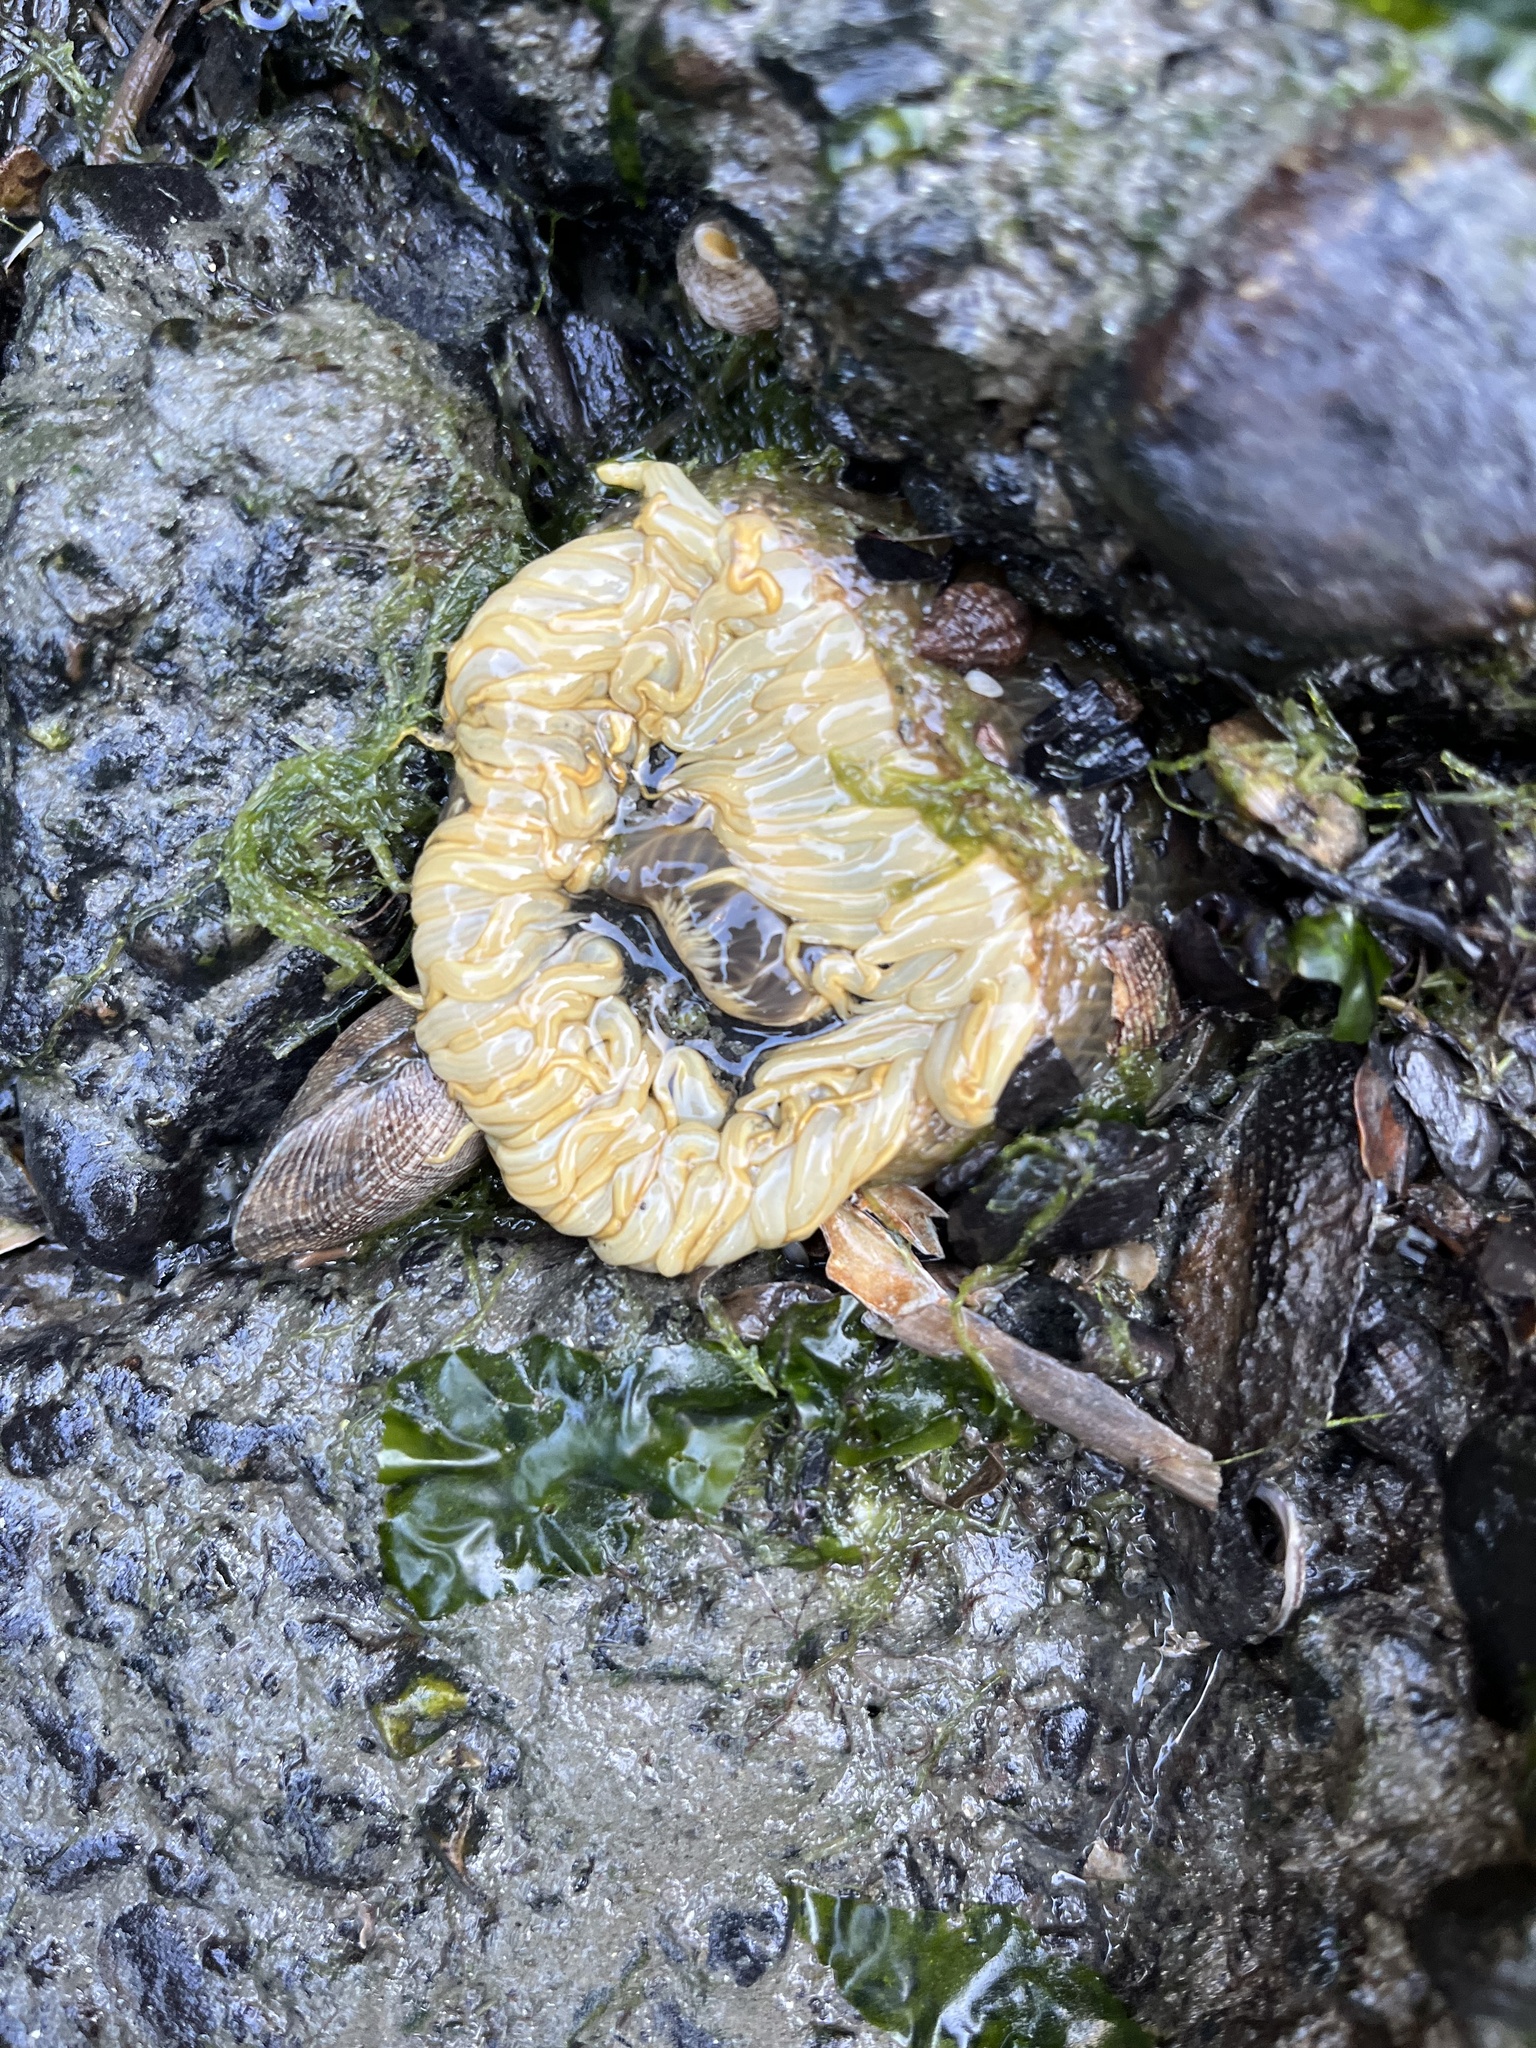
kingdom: Animalia
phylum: Cnidaria
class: Anthozoa
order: Actiniaria
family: Actiniidae
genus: Anthopleura
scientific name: Anthopleura artemisia
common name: Buried sea anemone
